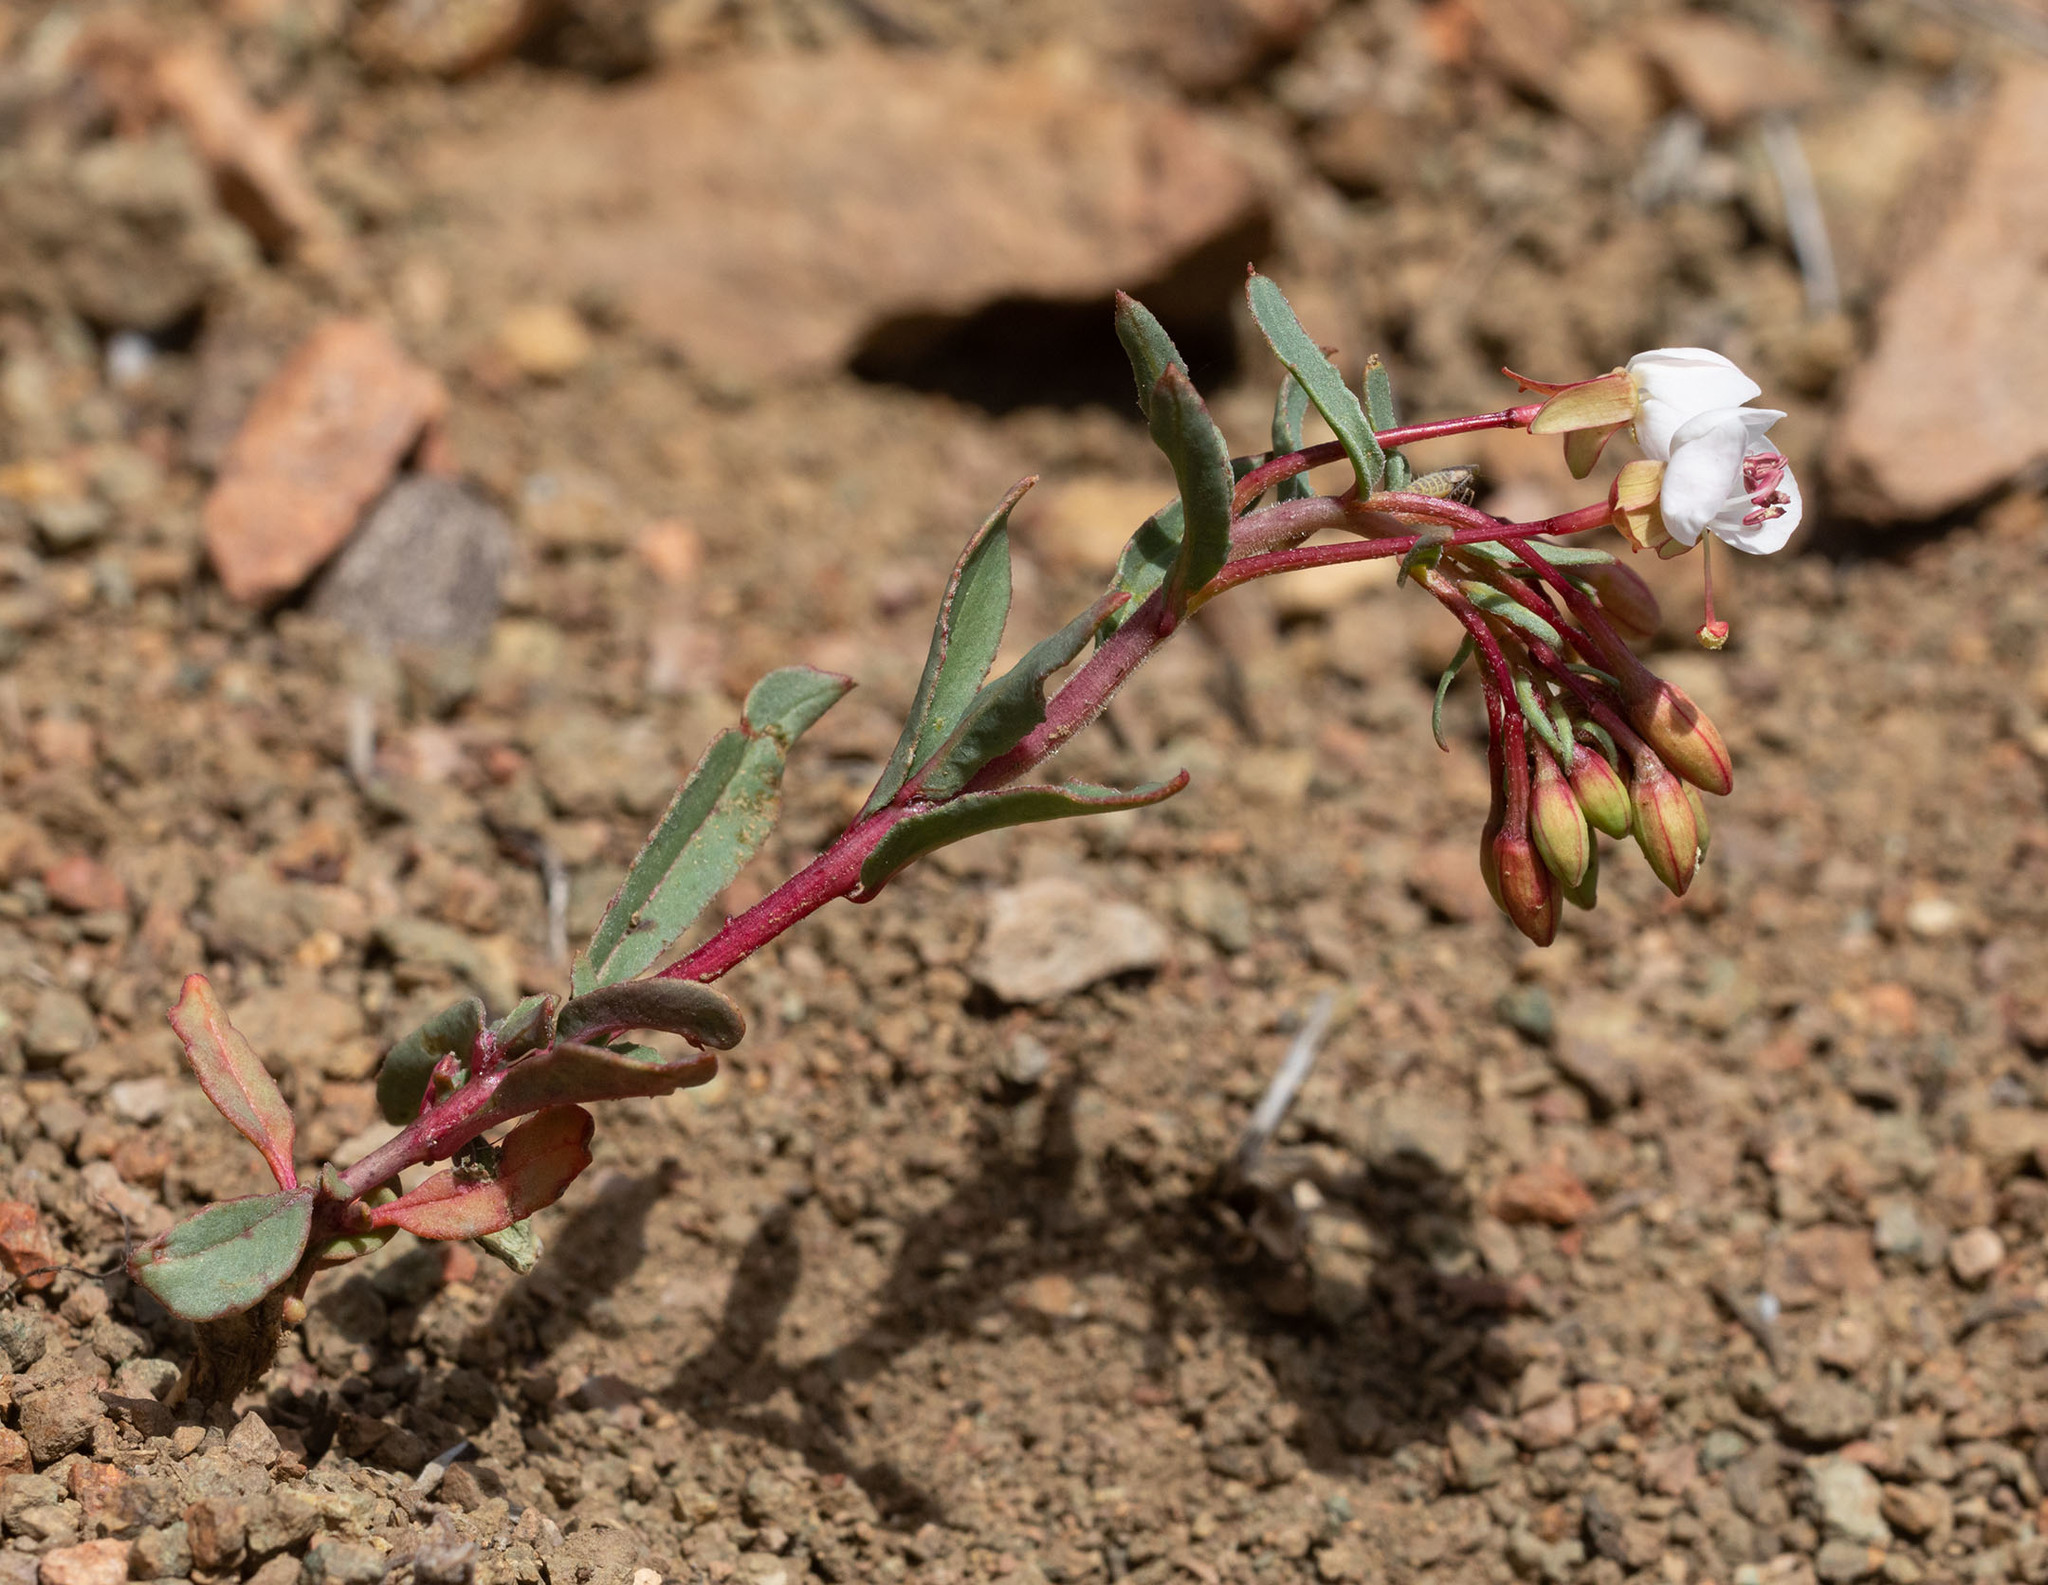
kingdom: Plantae
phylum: Tracheophyta
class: Magnoliopsida
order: Myrtales
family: Onagraceae
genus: Eremothera
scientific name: Eremothera boothii
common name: Booth's evening primrose
